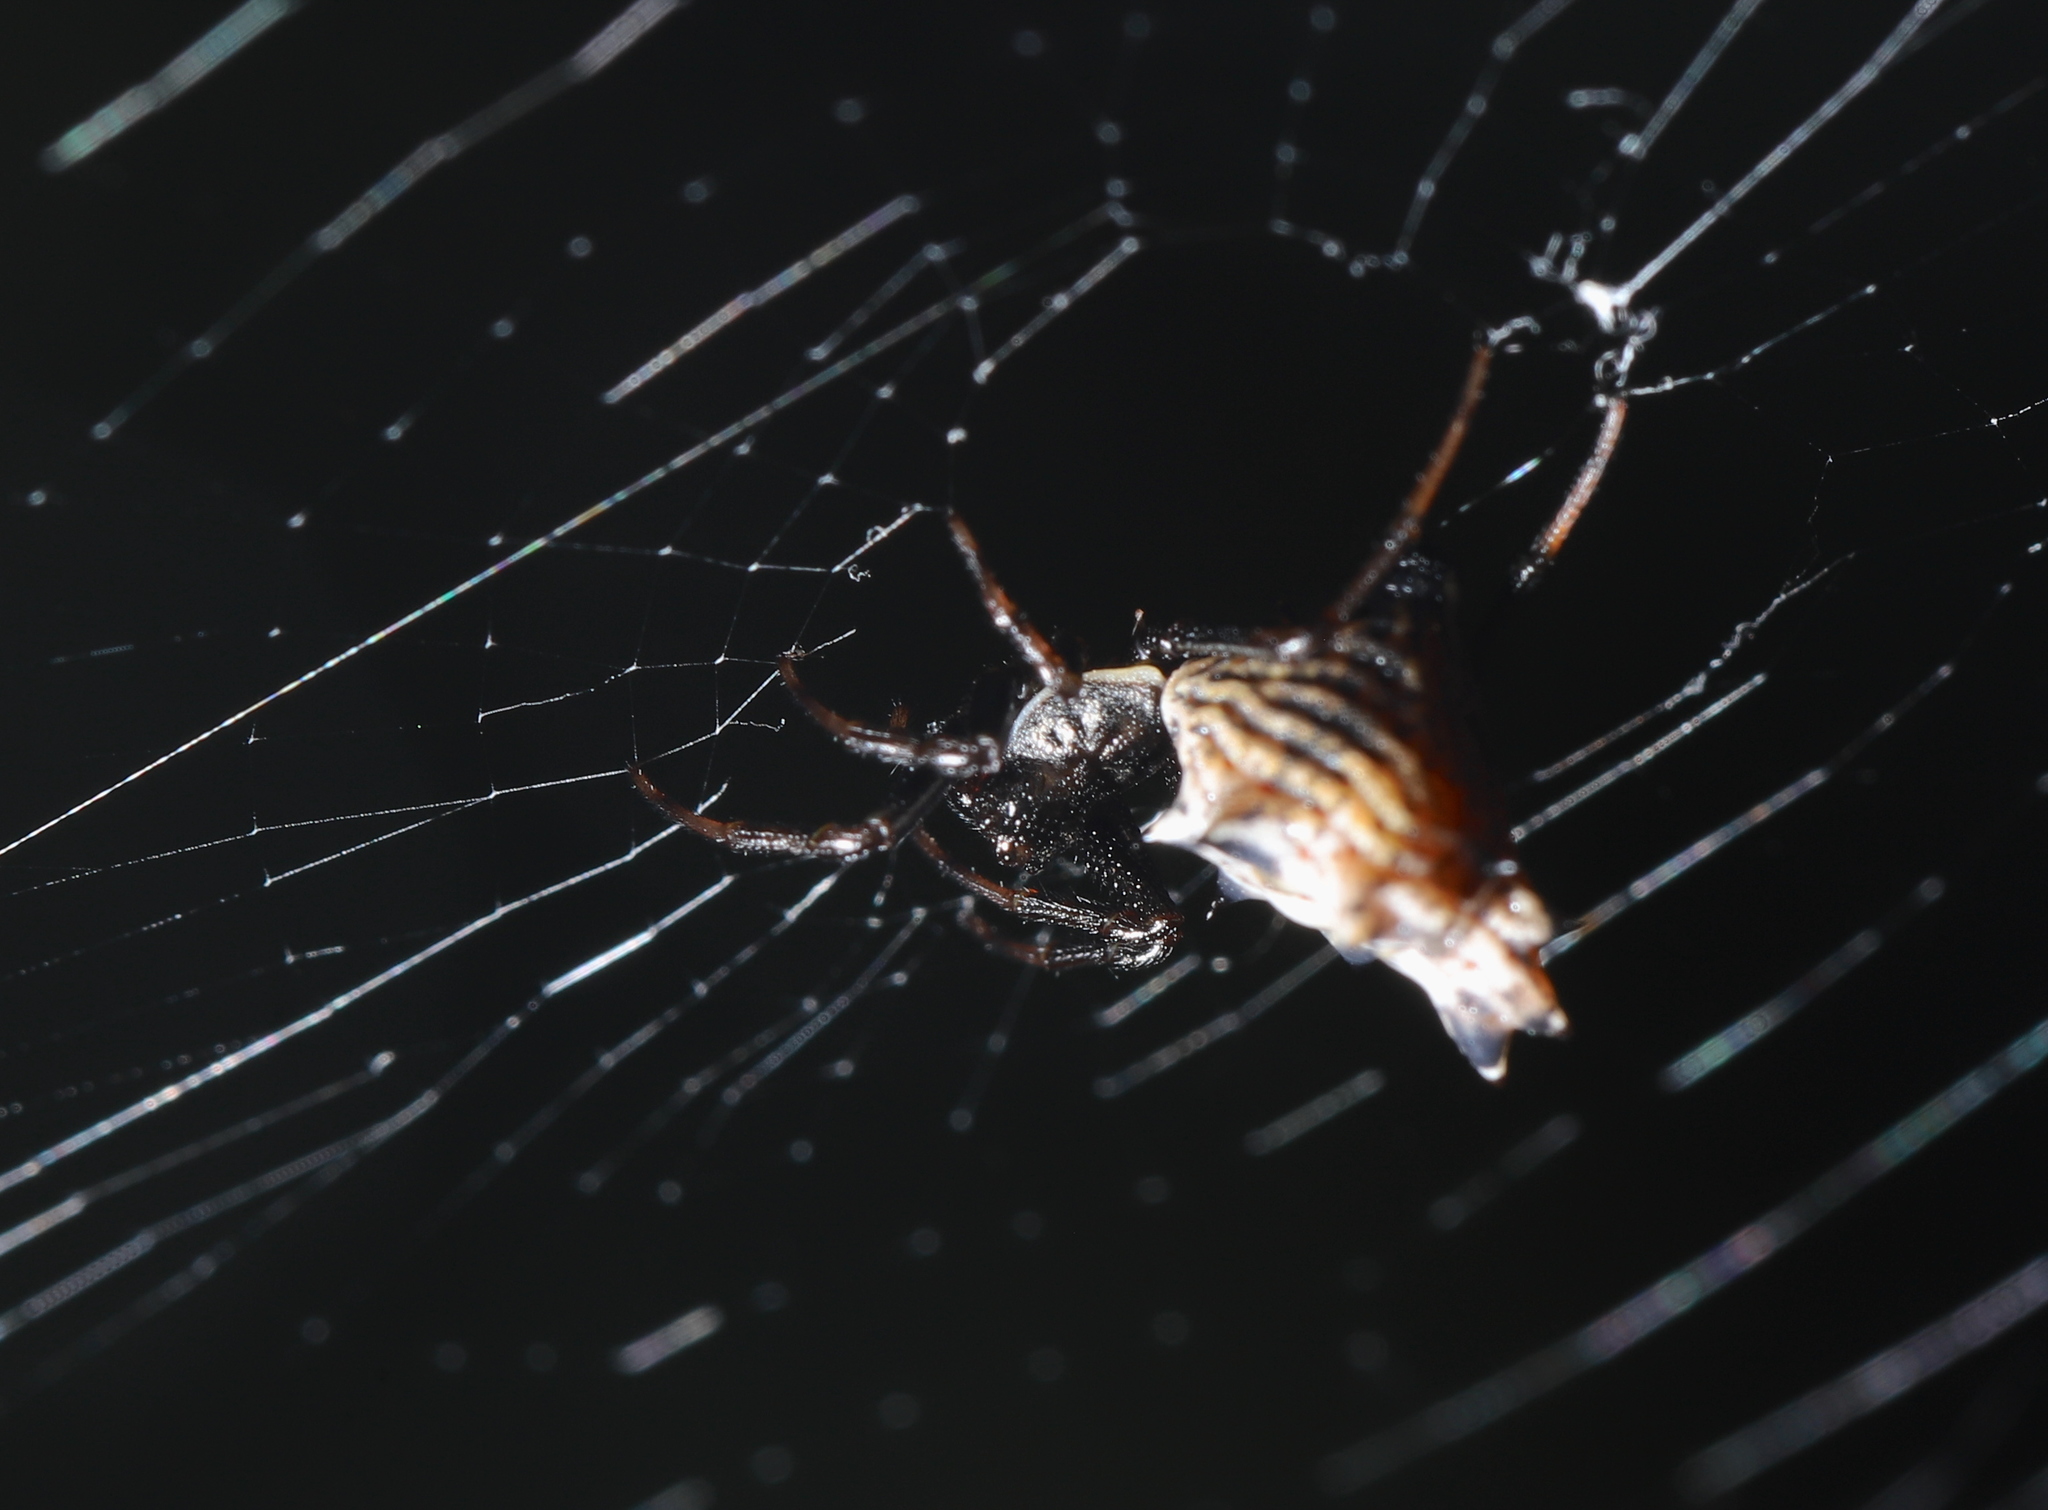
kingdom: Animalia
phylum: Arthropoda
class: Arachnida
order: Araneae
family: Araneidae
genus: Micrathena
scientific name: Micrathena gracilis
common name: Orb weavers
